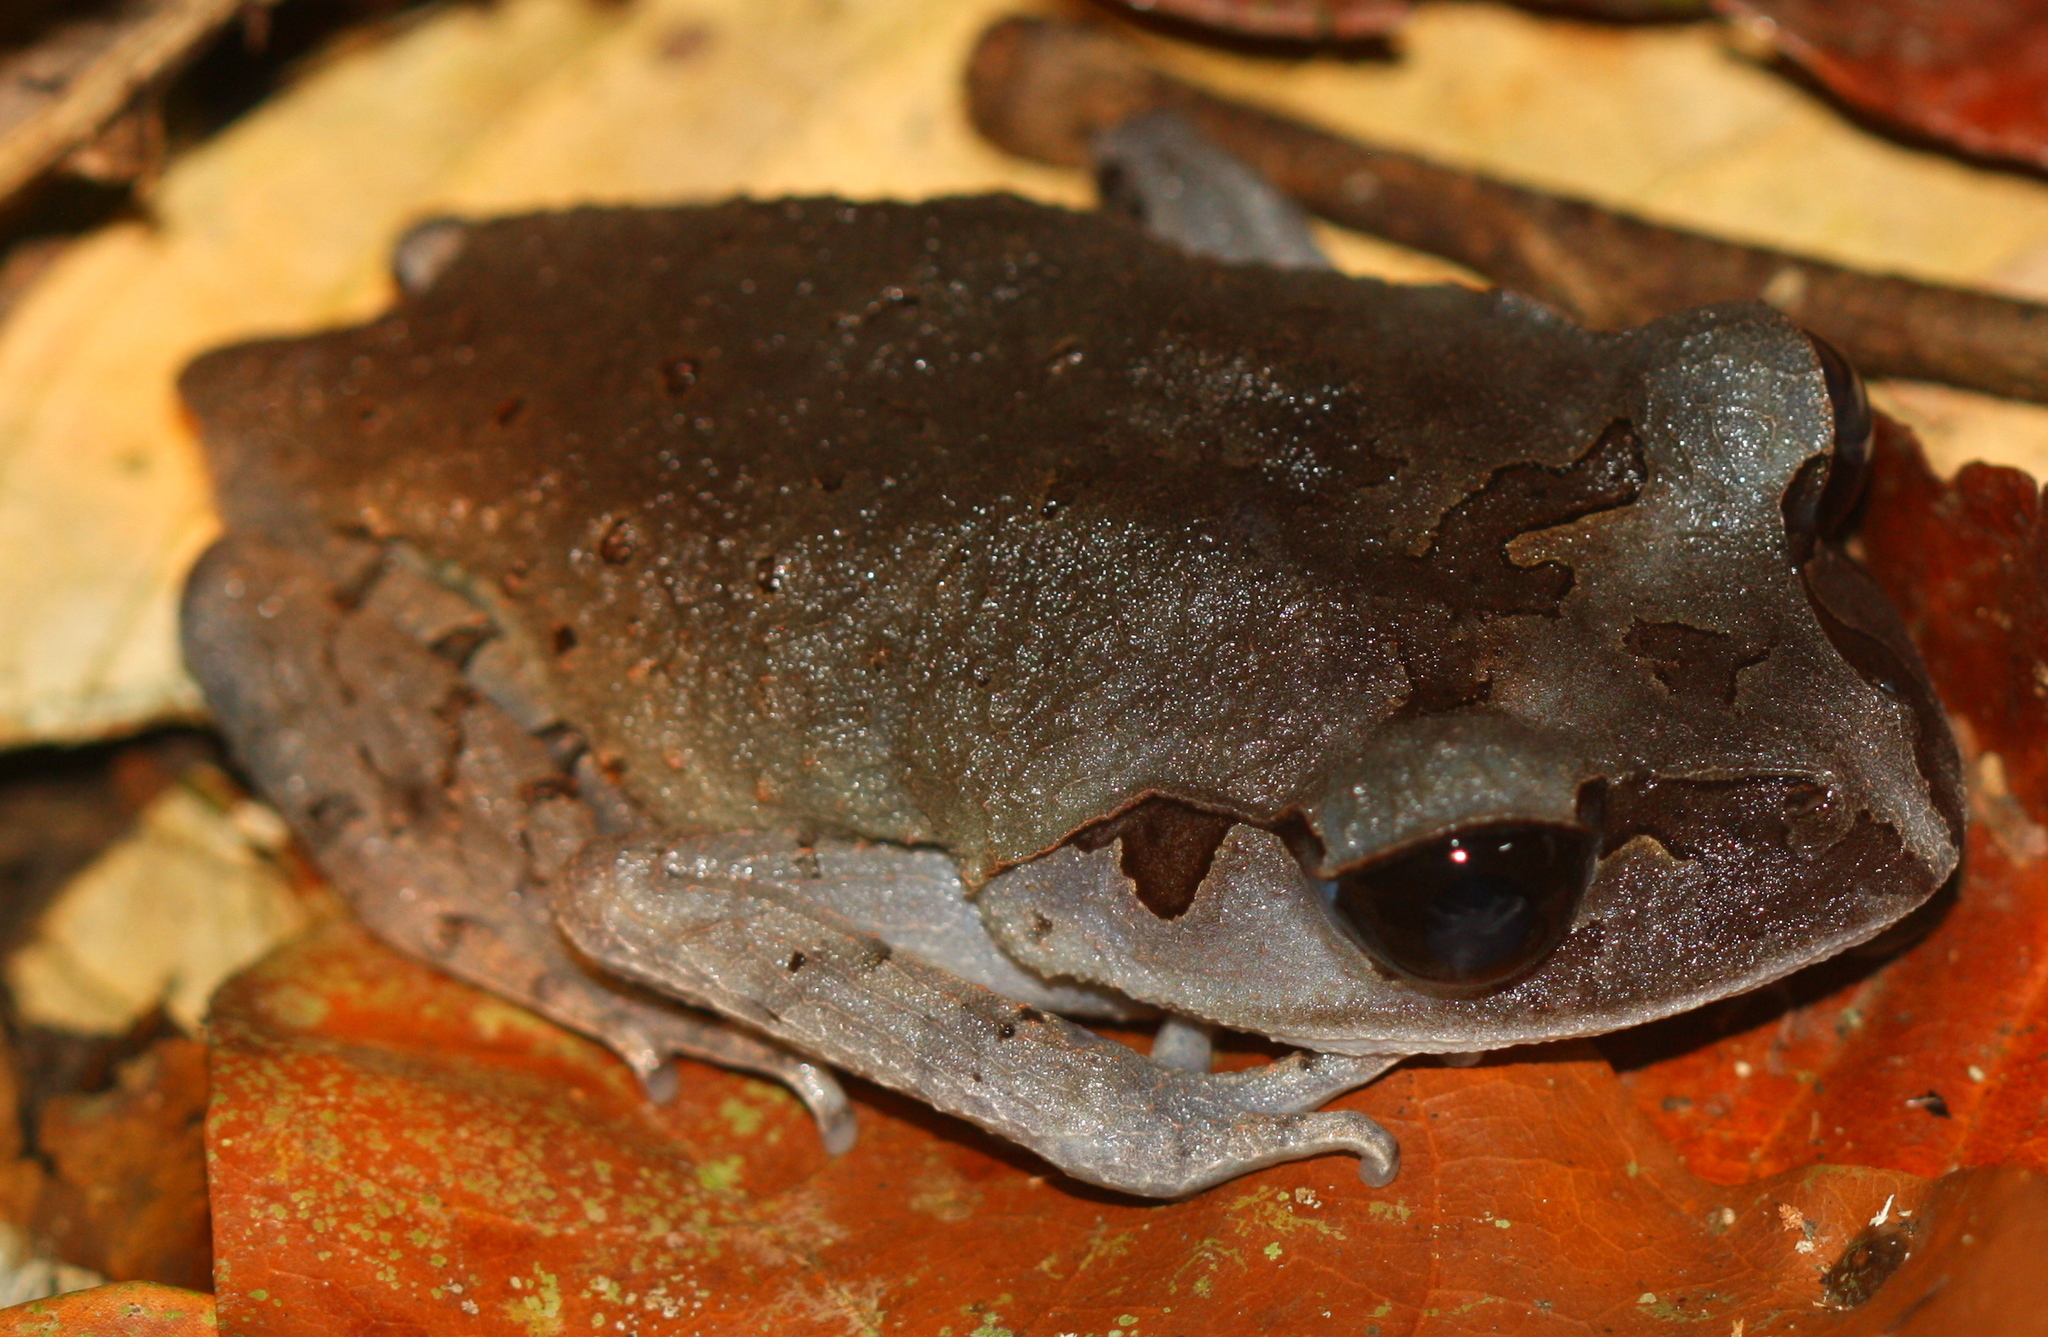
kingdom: Animalia
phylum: Chordata
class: Amphibia
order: Anura
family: Megophryidae
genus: Leptobrachium
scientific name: Leptobrachium abbotti
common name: Abbott’s litter frog
